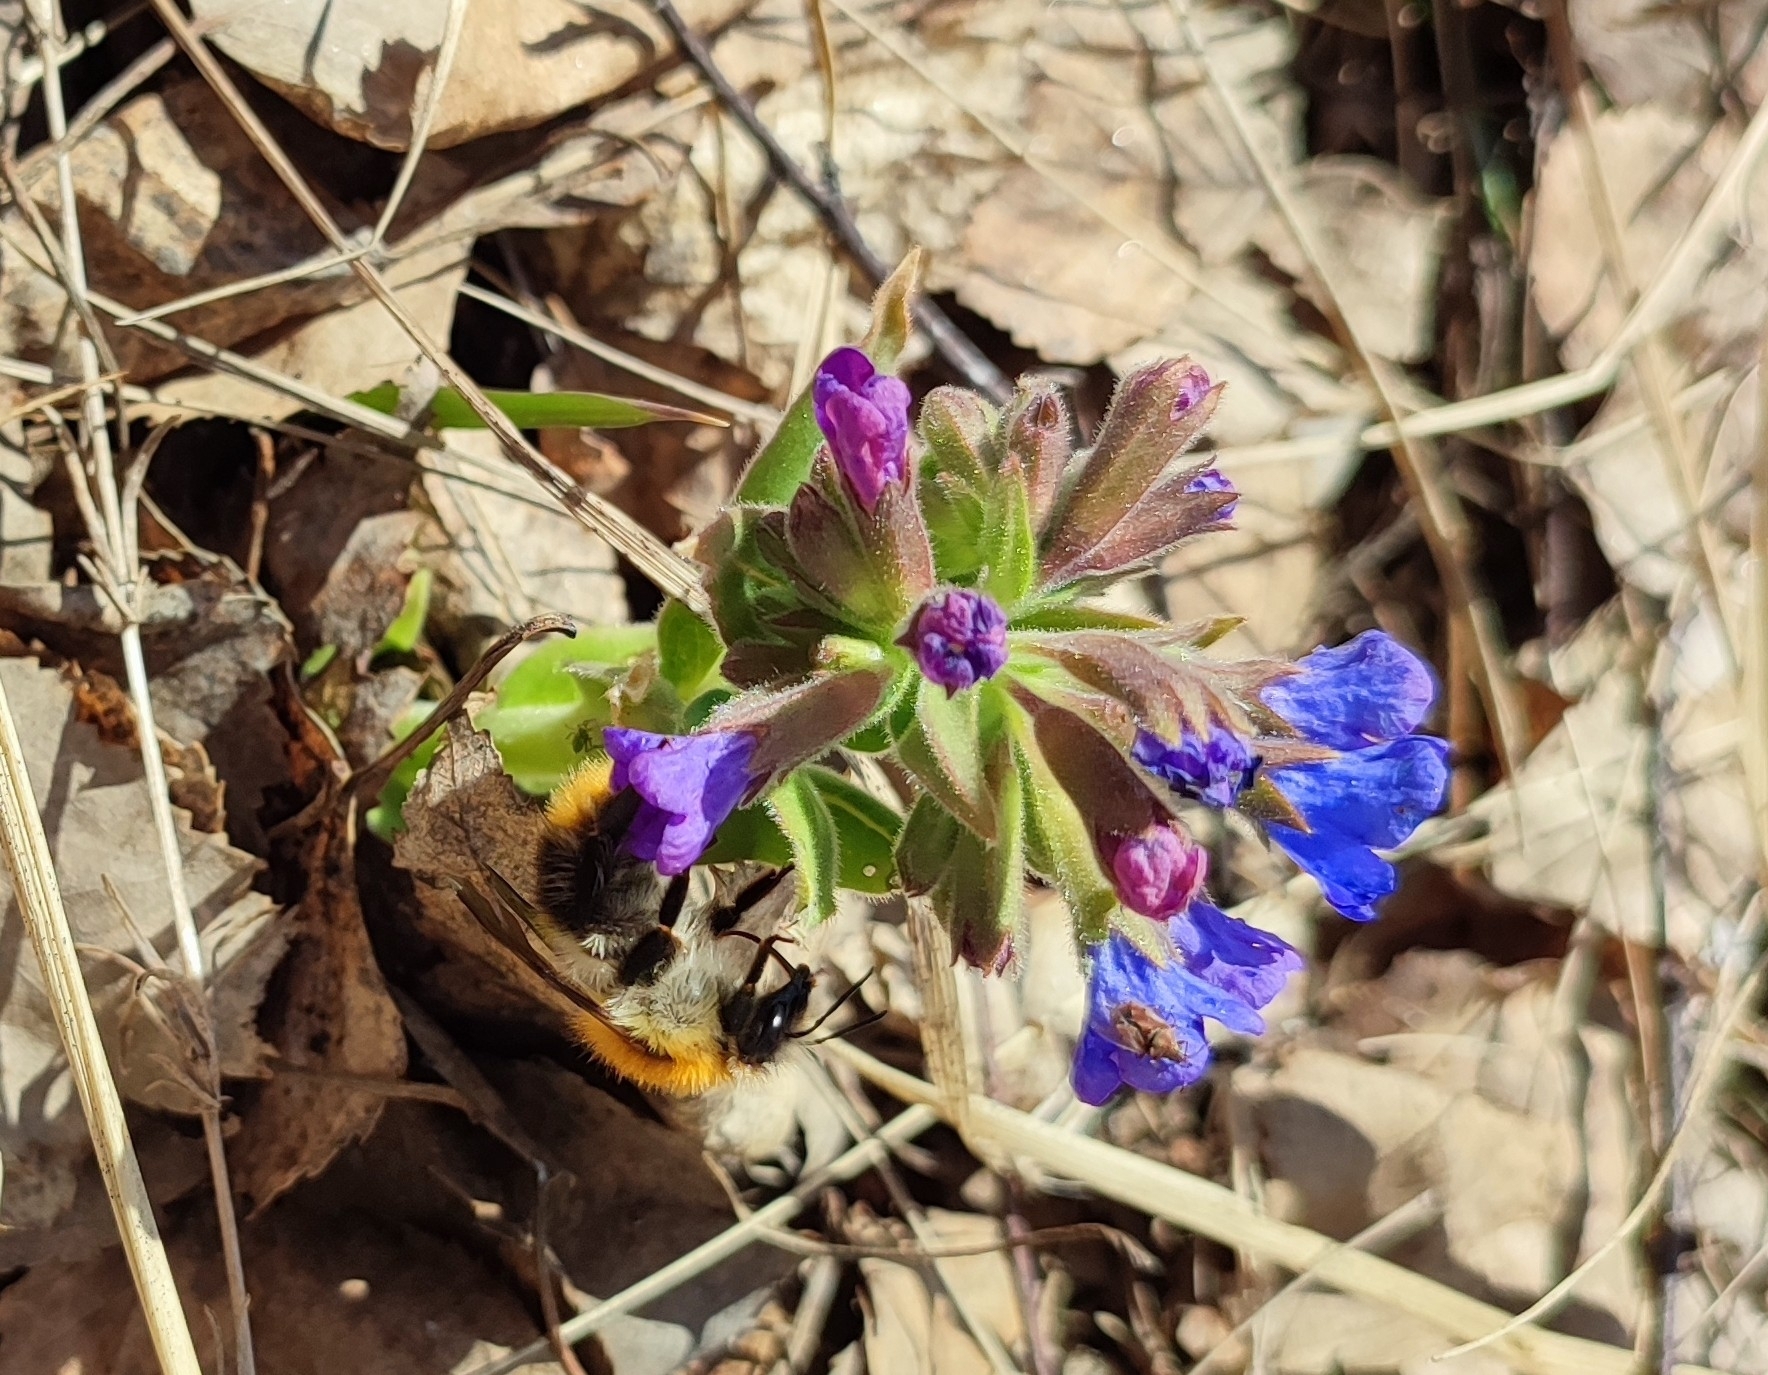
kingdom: Plantae
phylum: Tracheophyta
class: Magnoliopsida
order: Boraginales
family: Boraginaceae
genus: Pulmonaria
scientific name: Pulmonaria mollis
